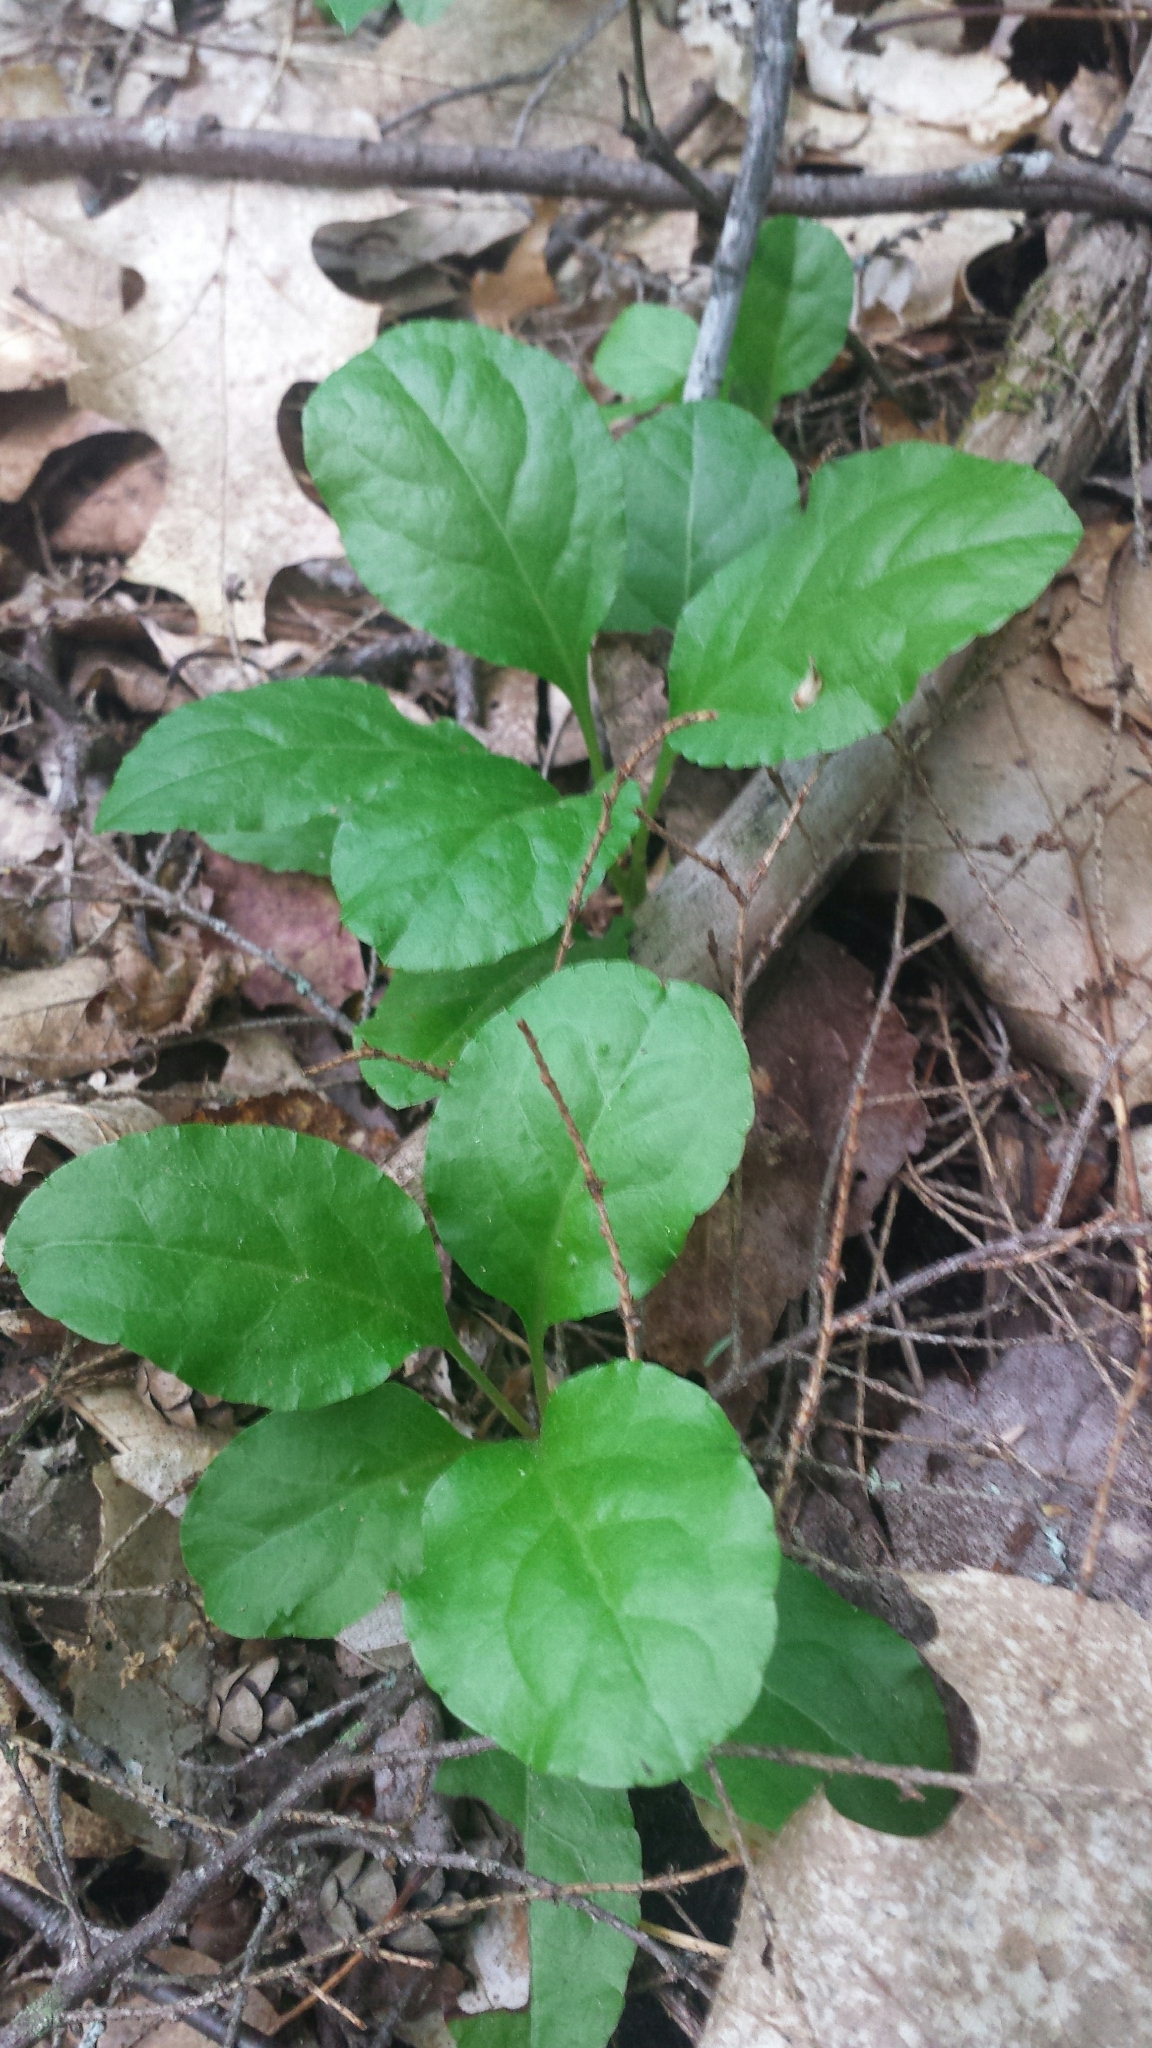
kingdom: Plantae
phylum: Tracheophyta
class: Magnoliopsida
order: Ericales
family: Ericaceae
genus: Pyrola
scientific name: Pyrola elliptica
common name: Shinleaf
